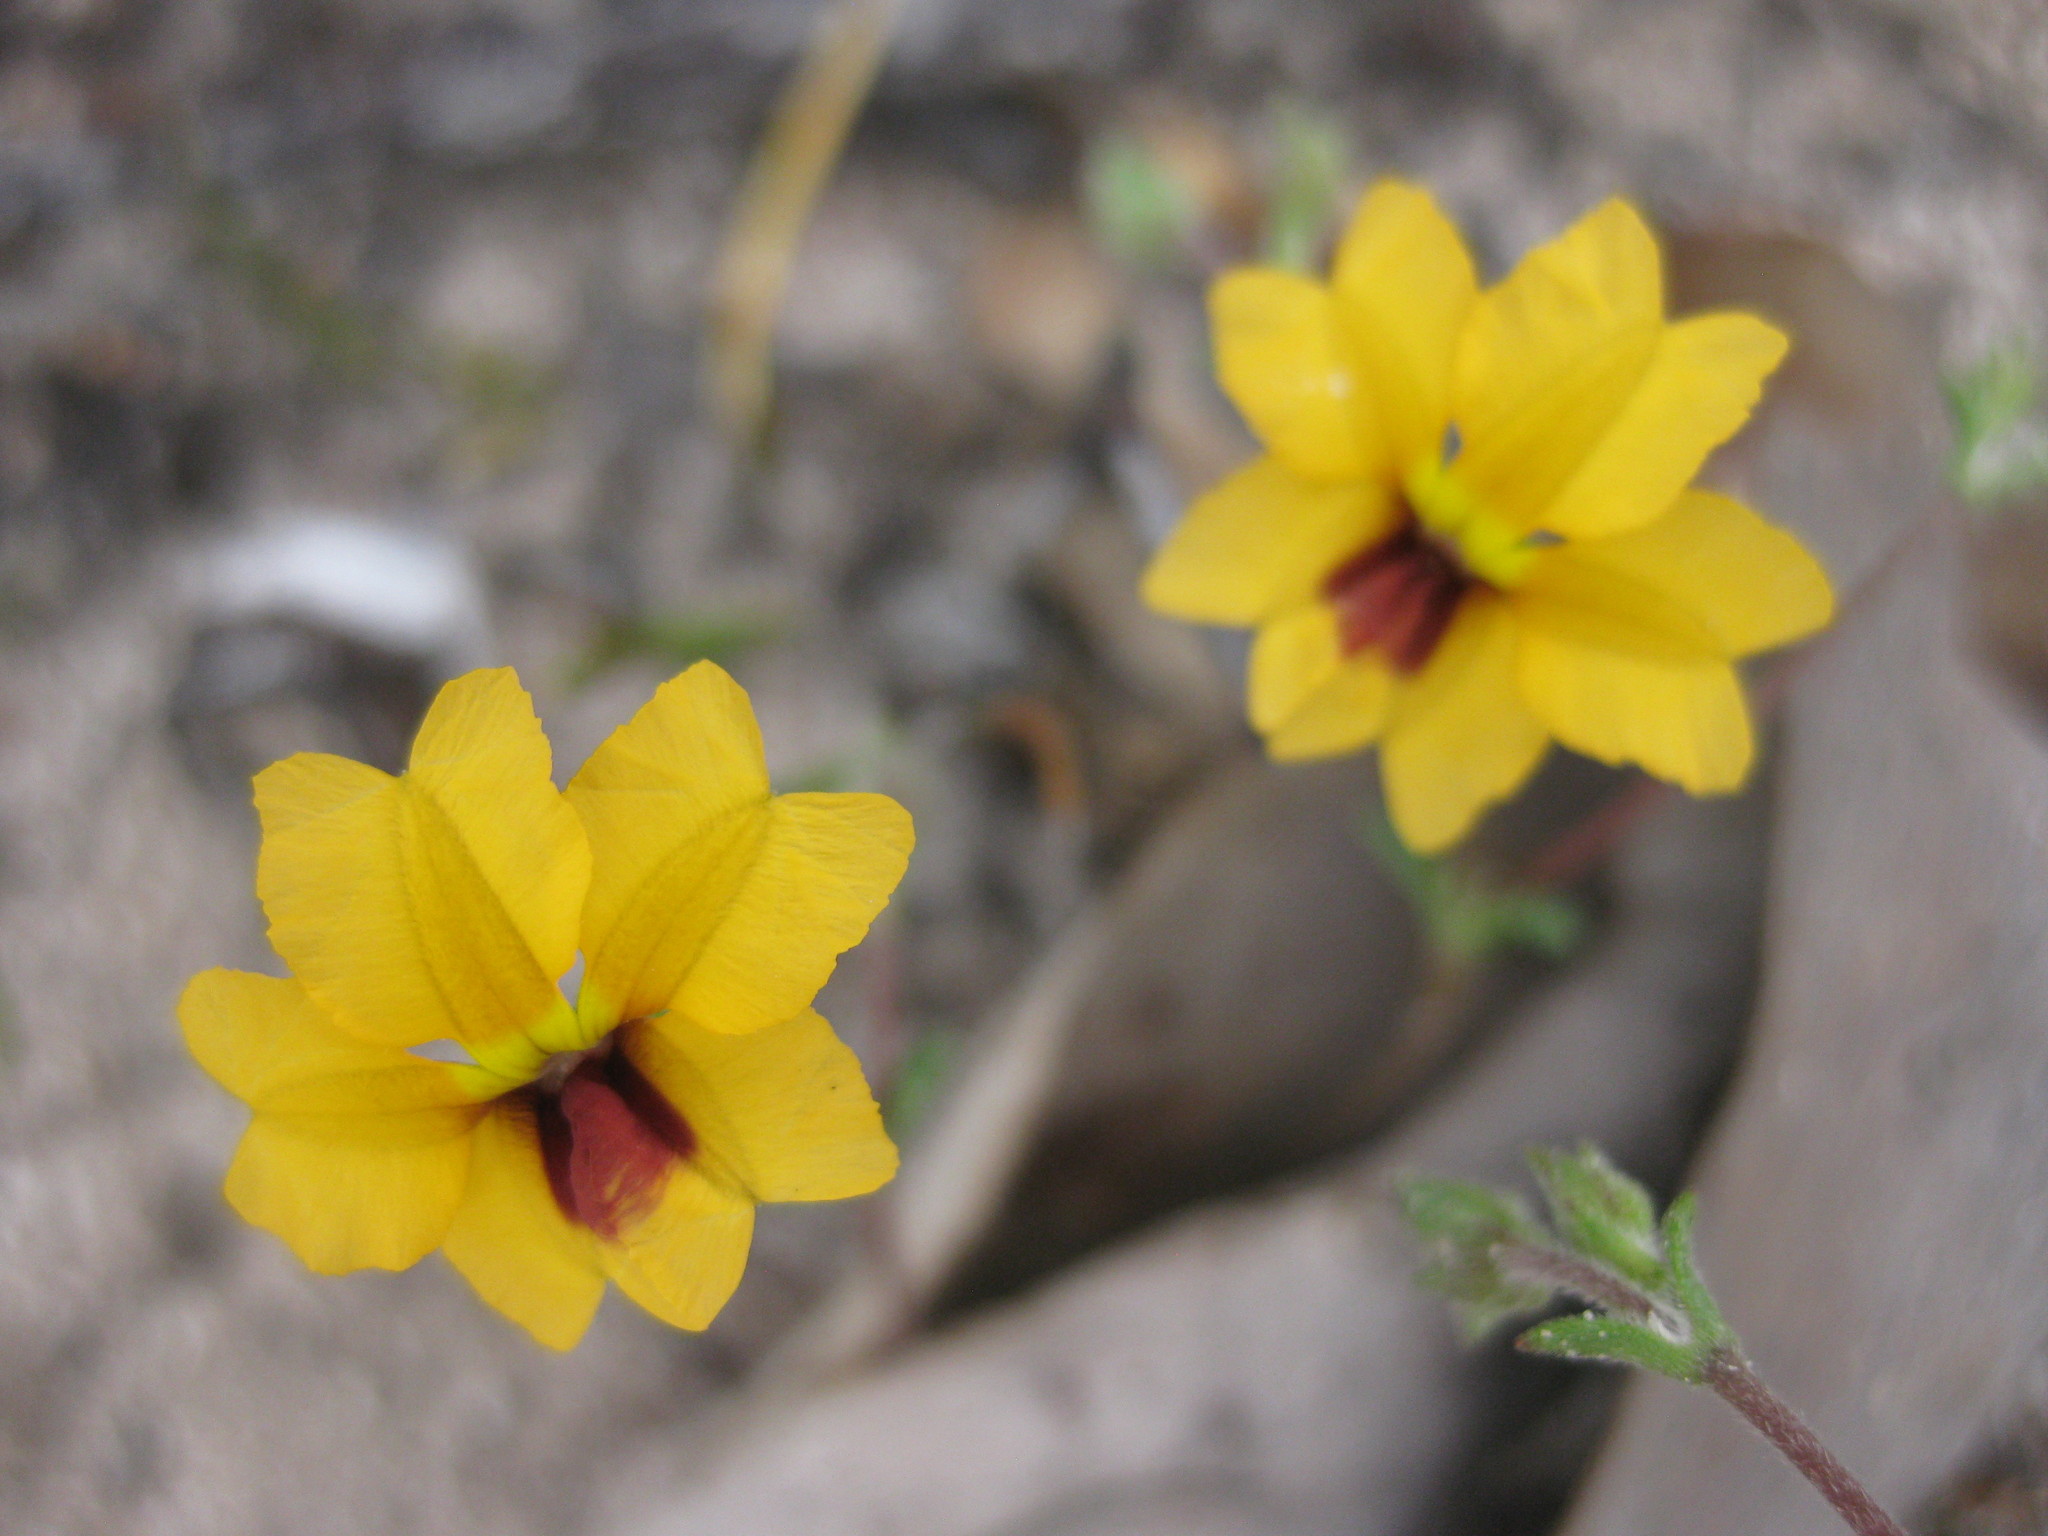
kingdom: Plantae
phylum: Tracheophyta
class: Magnoliopsida
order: Asterales
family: Goodeniaceae
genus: Goodenia
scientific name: Goodenia trinervis
